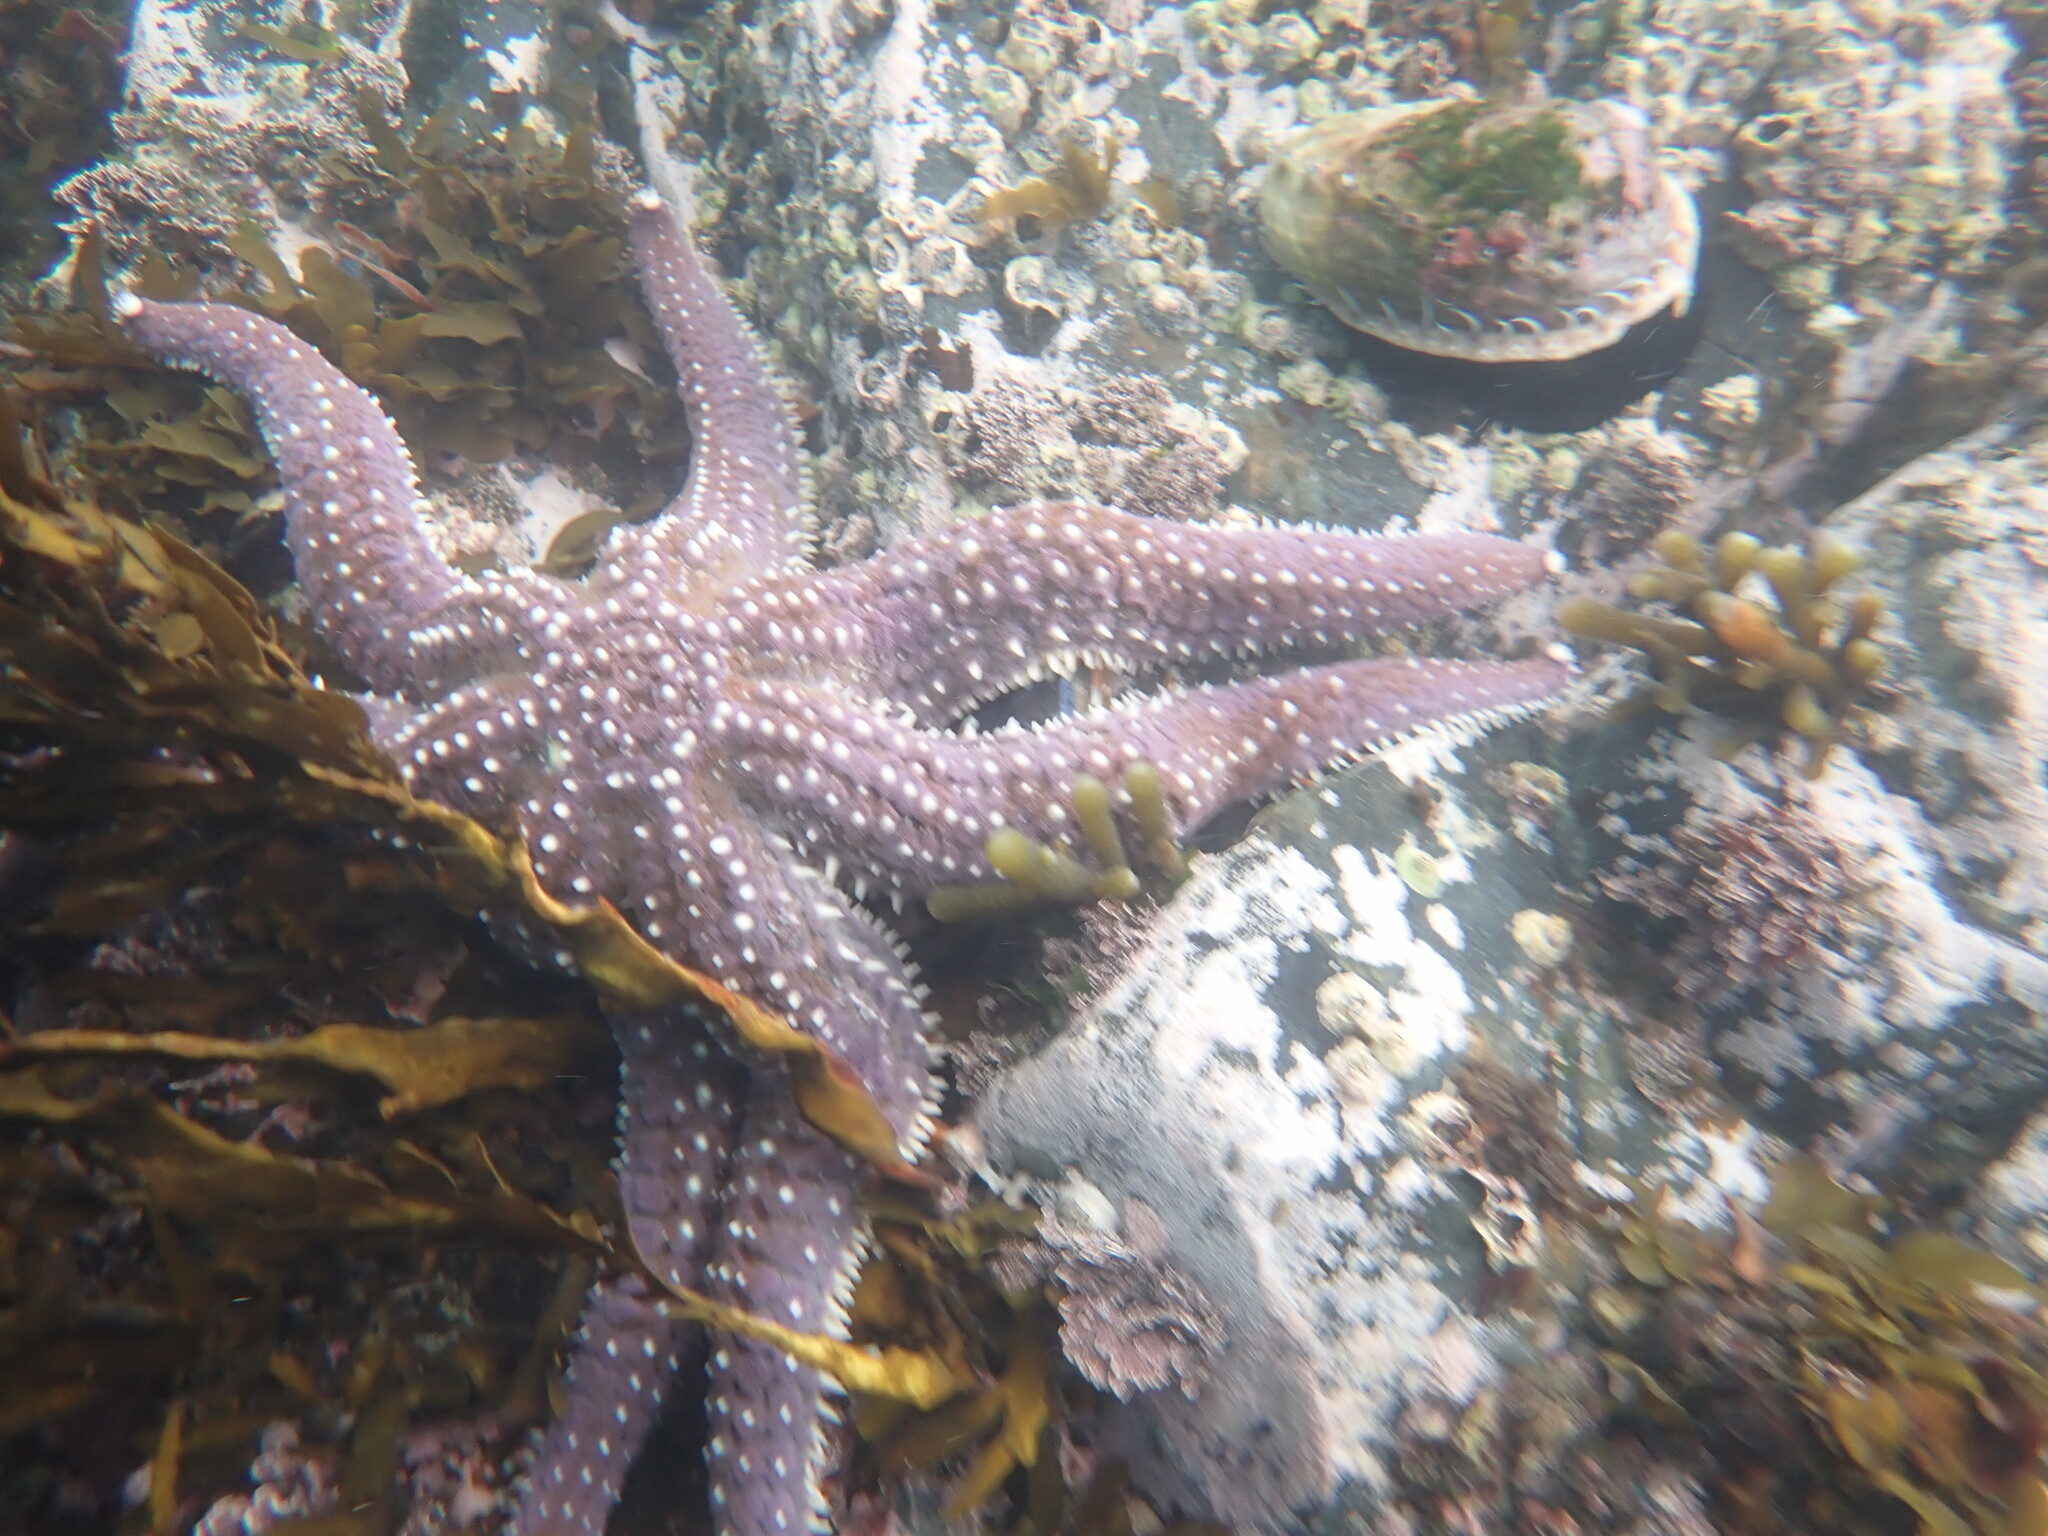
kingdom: Animalia
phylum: Echinodermata
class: Asteroidea
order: Forcipulatida
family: Asteriidae
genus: Astrostole
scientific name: Astrostole scabra
